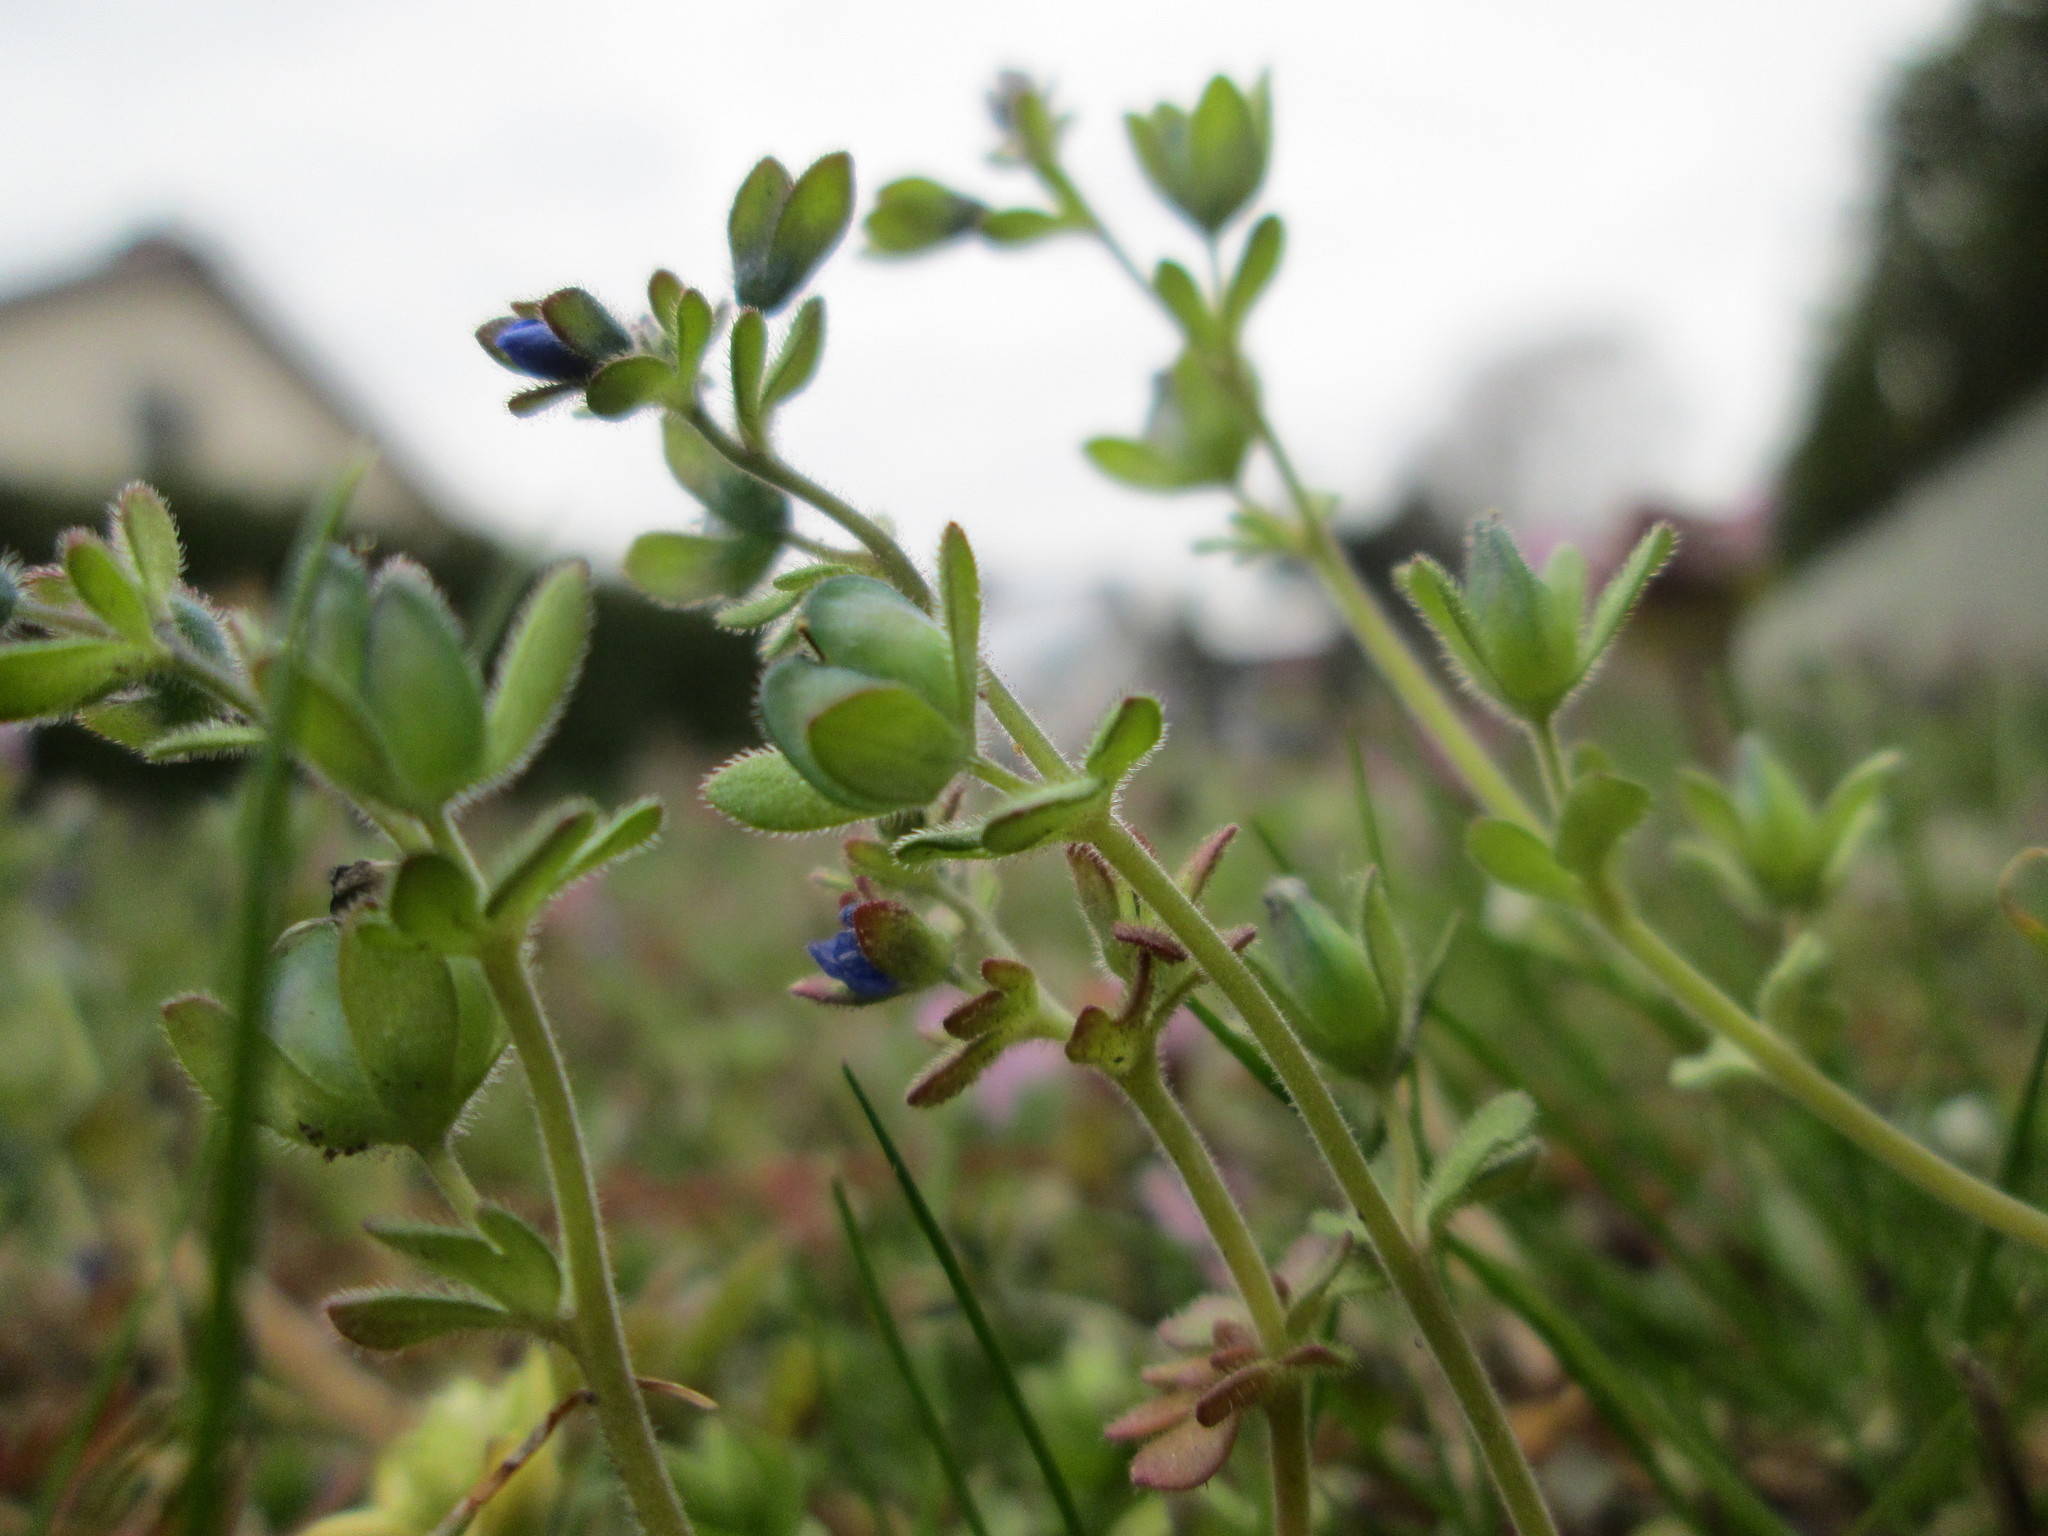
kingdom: Plantae
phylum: Tracheophyta
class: Magnoliopsida
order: Lamiales
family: Plantaginaceae
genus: Veronica
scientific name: Veronica triphyllos
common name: Fingered speedwell
